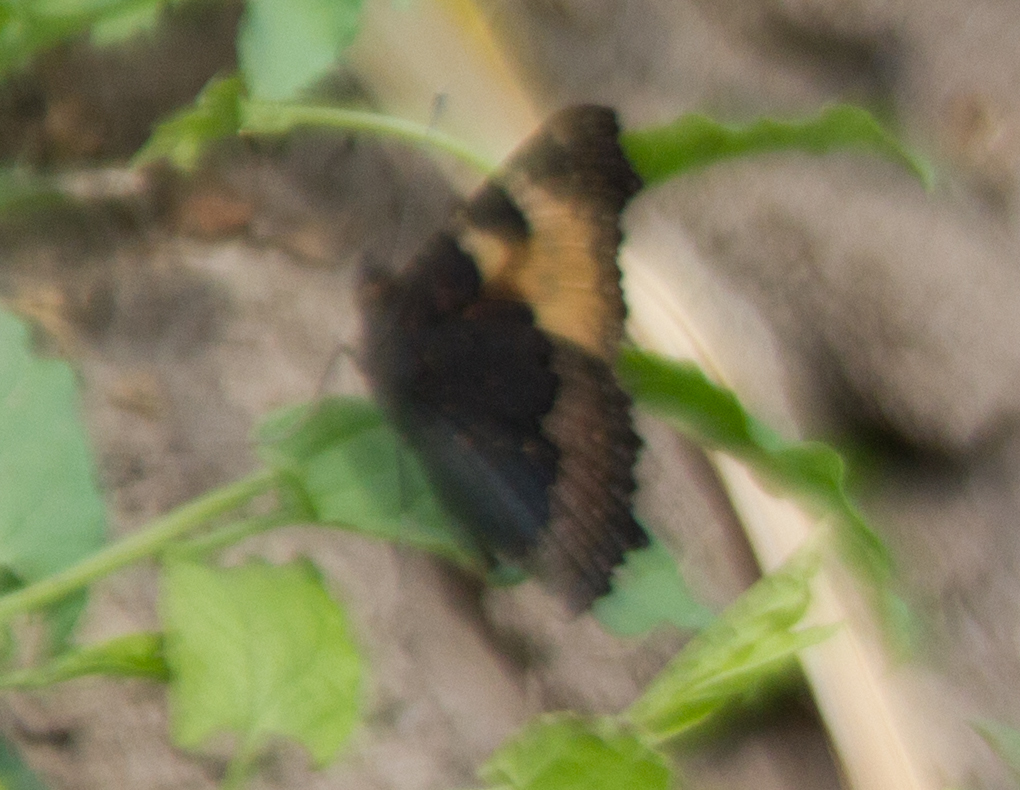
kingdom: Animalia
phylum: Arthropoda
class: Insecta
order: Lepidoptera
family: Nymphalidae
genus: Aglais
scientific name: Aglais urticae
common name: Small tortoiseshell
